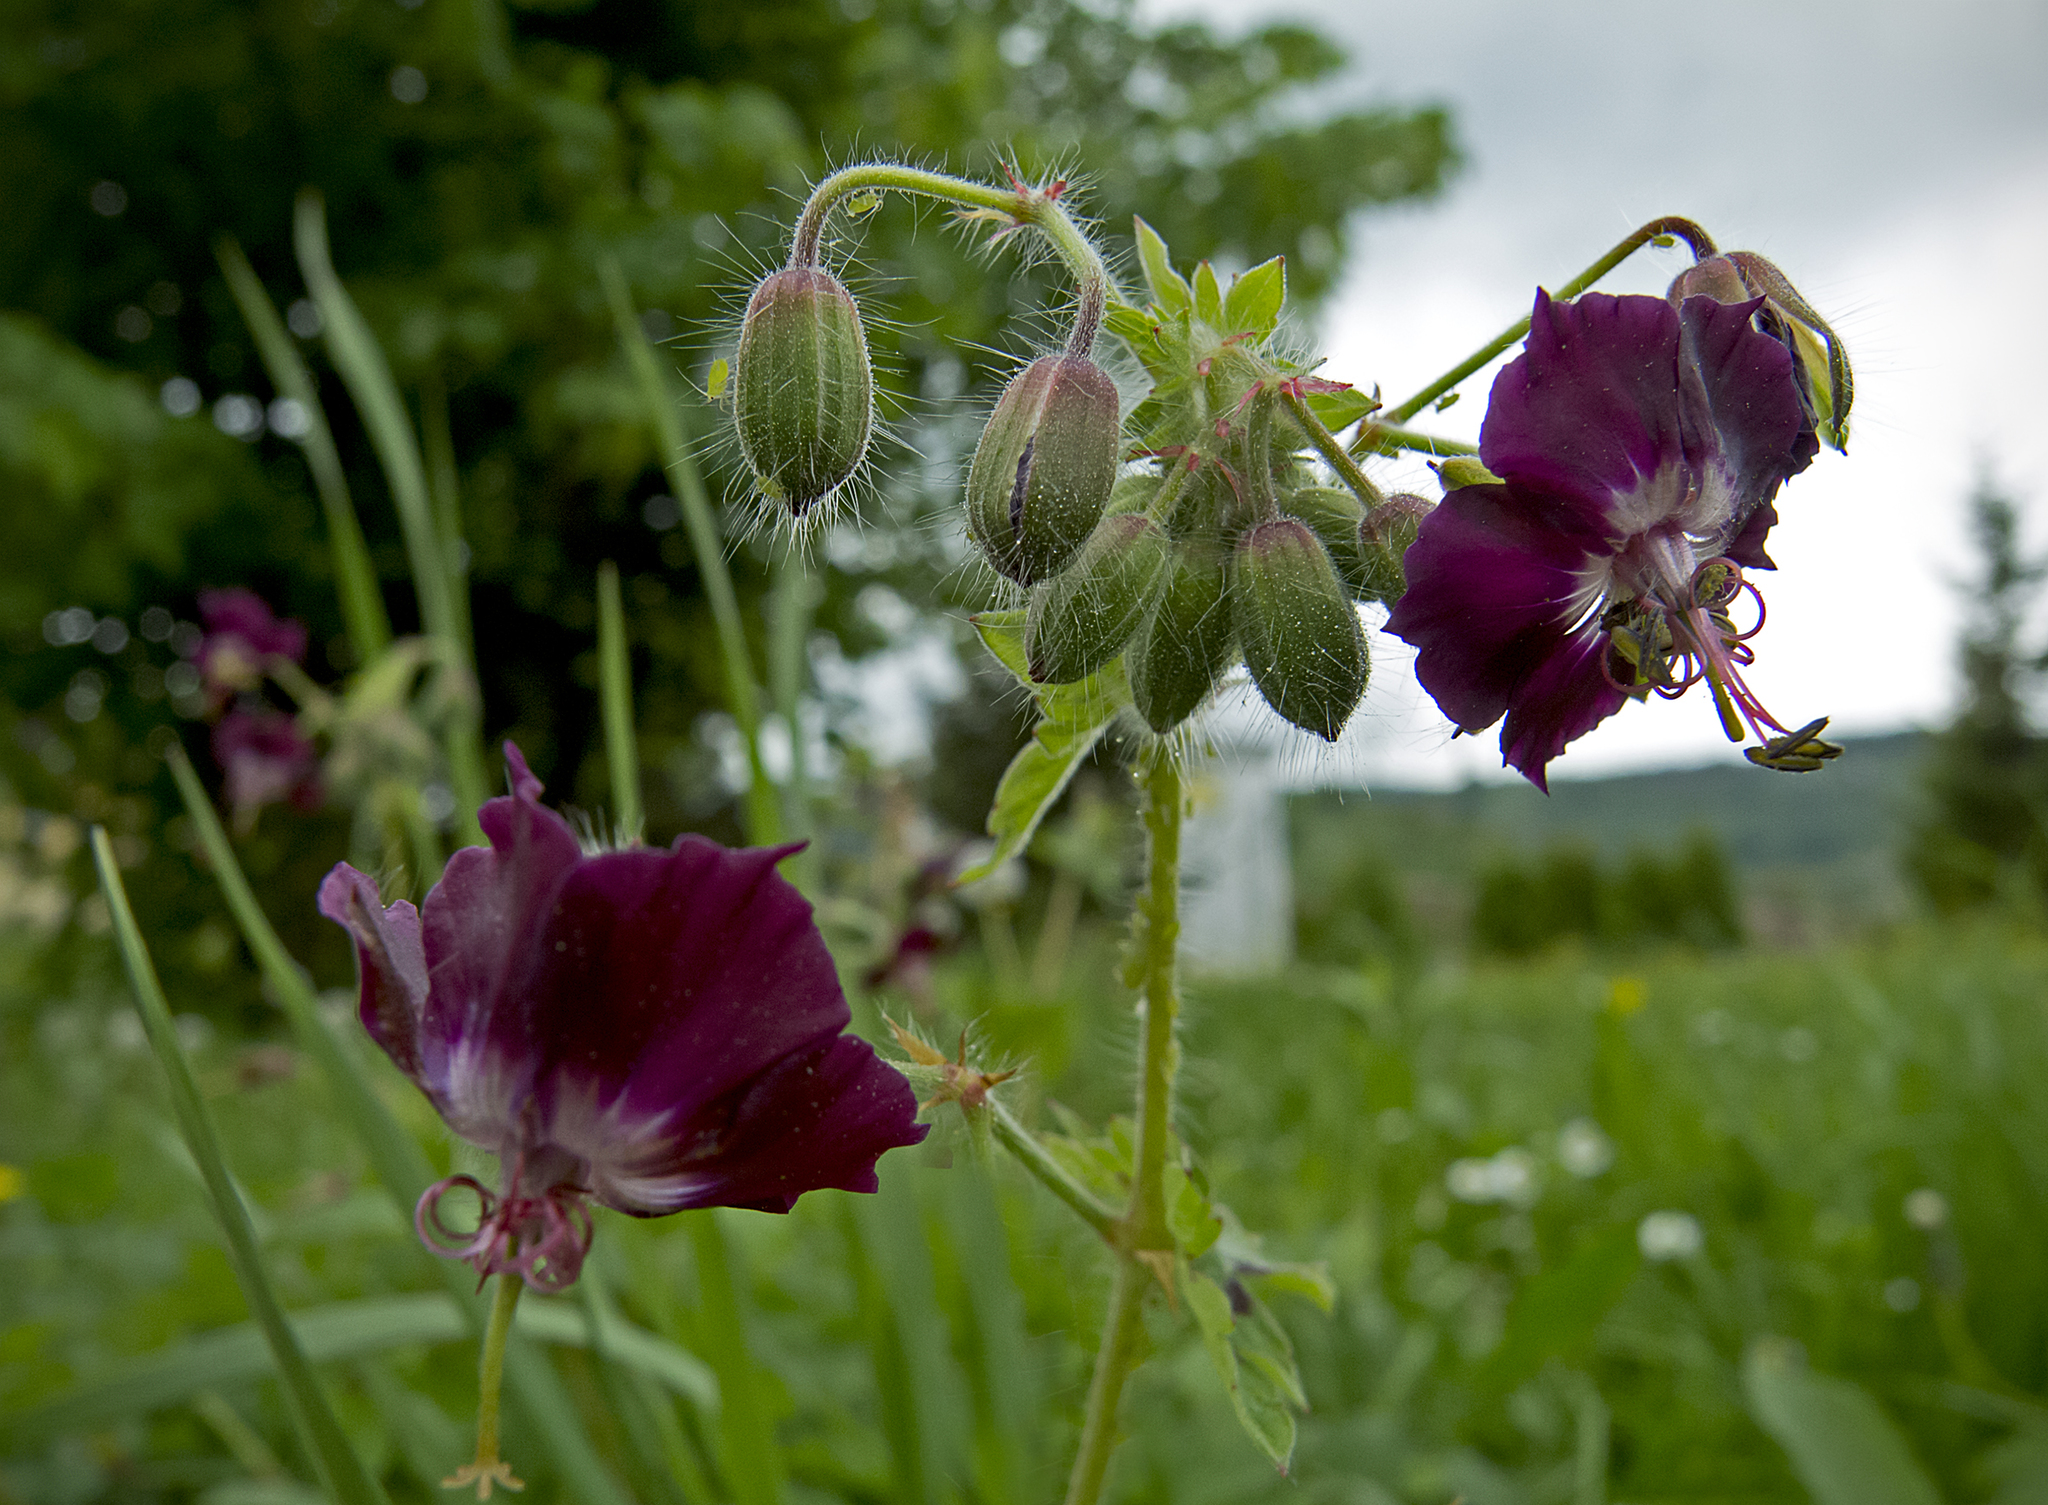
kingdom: Plantae
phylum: Tracheophyta
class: Magnoliopsida
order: Geraniales
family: Geraniaceae
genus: Geranium
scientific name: Geranium phaeum
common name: Dusky crane's-bill
